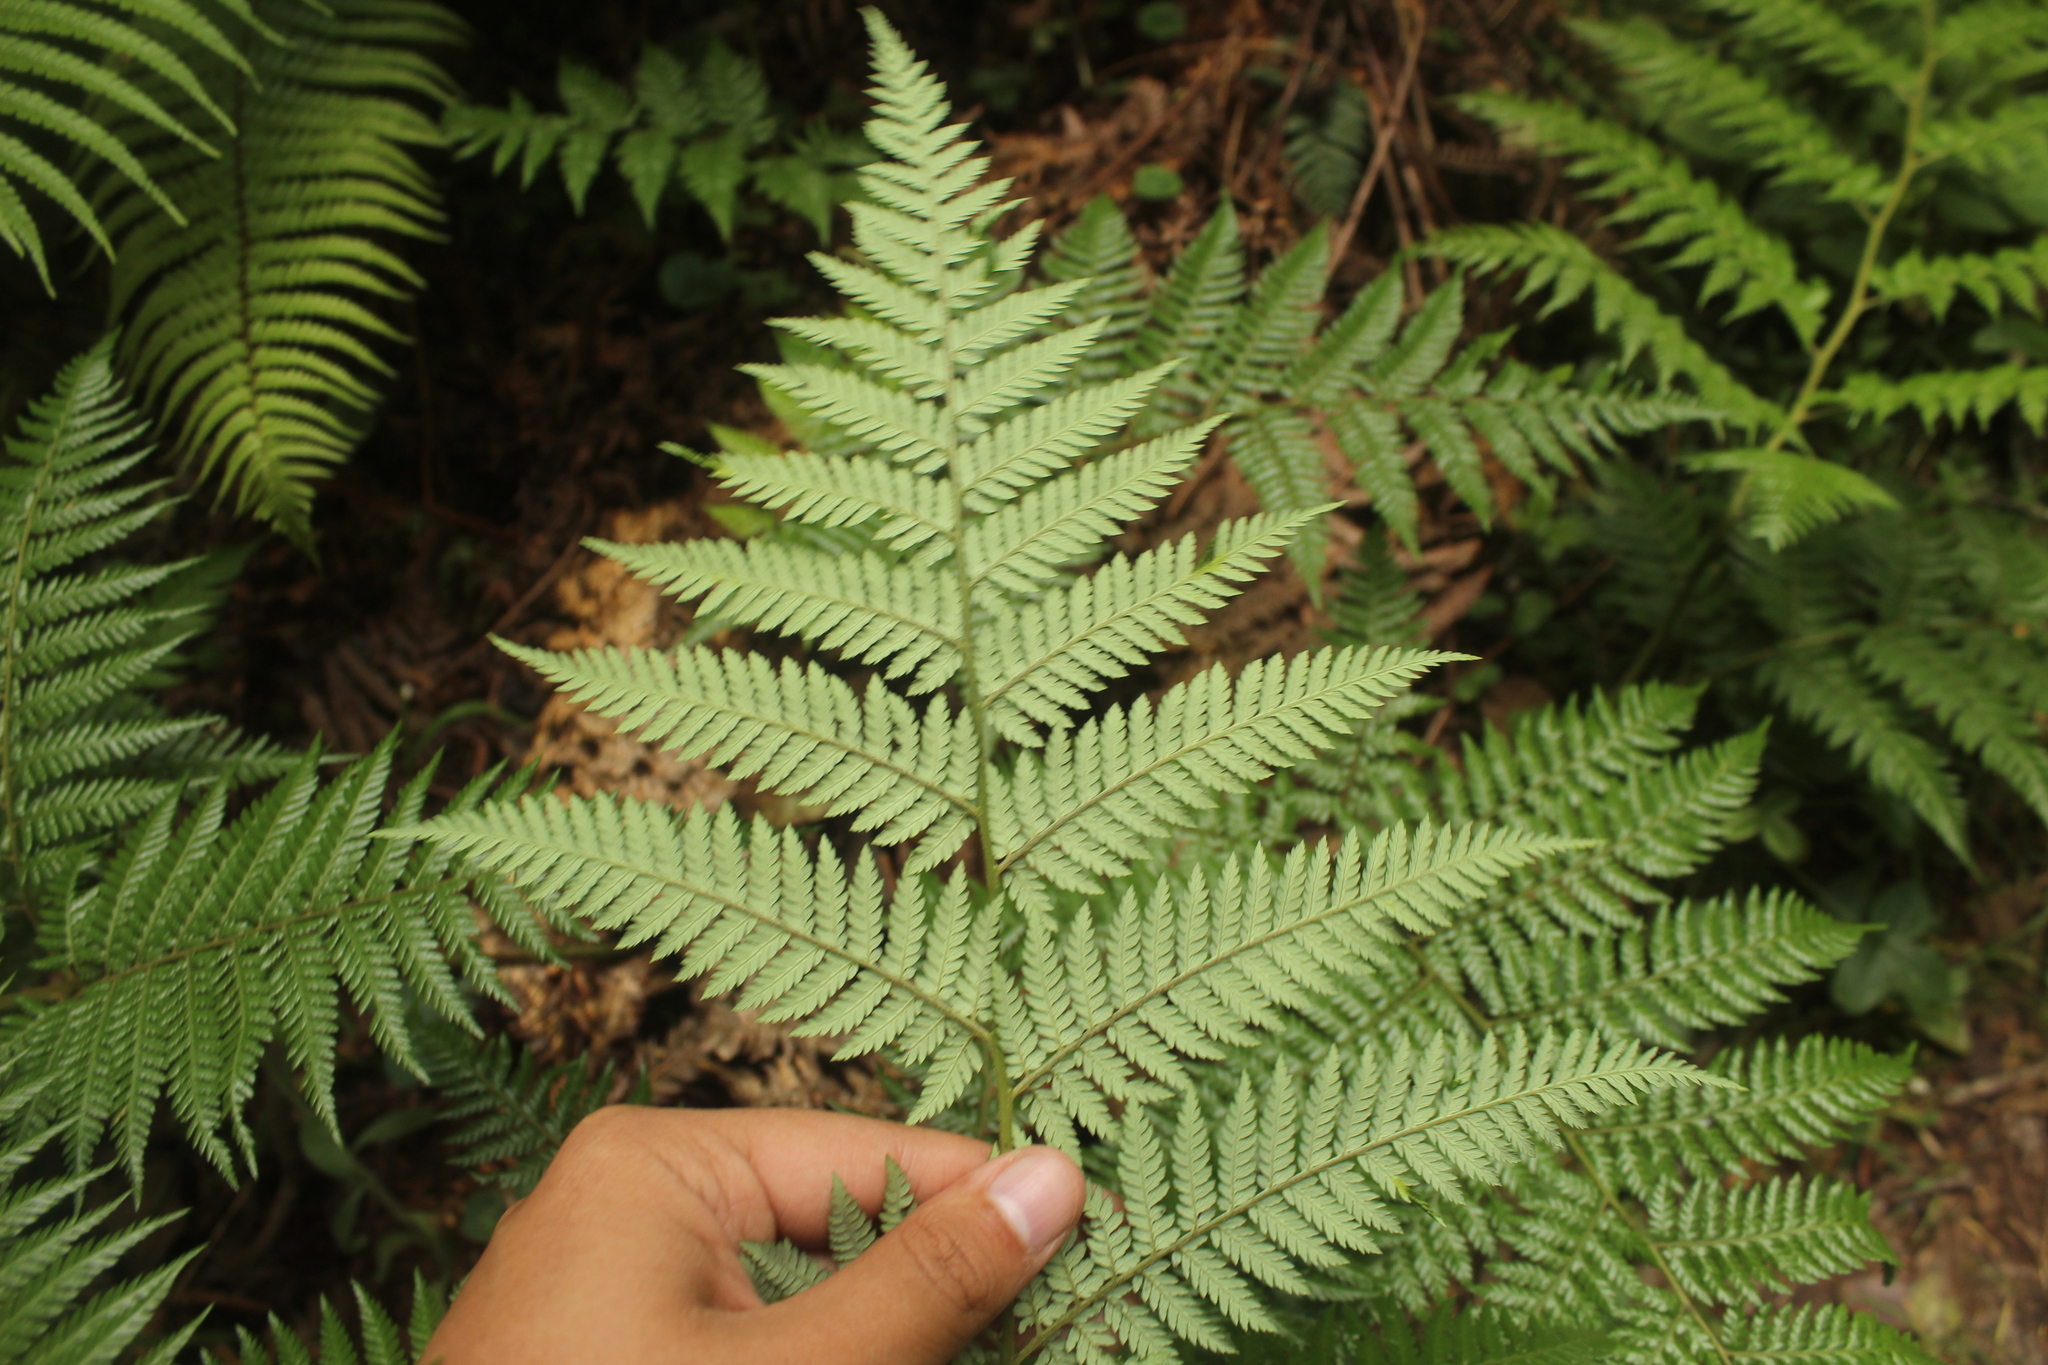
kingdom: Plantae
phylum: Tracheophyta
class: Polypodiopsida
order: Cyatheales
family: Dicksoniaceae
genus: Lophosoria
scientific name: Lophosoria quadripinnata
